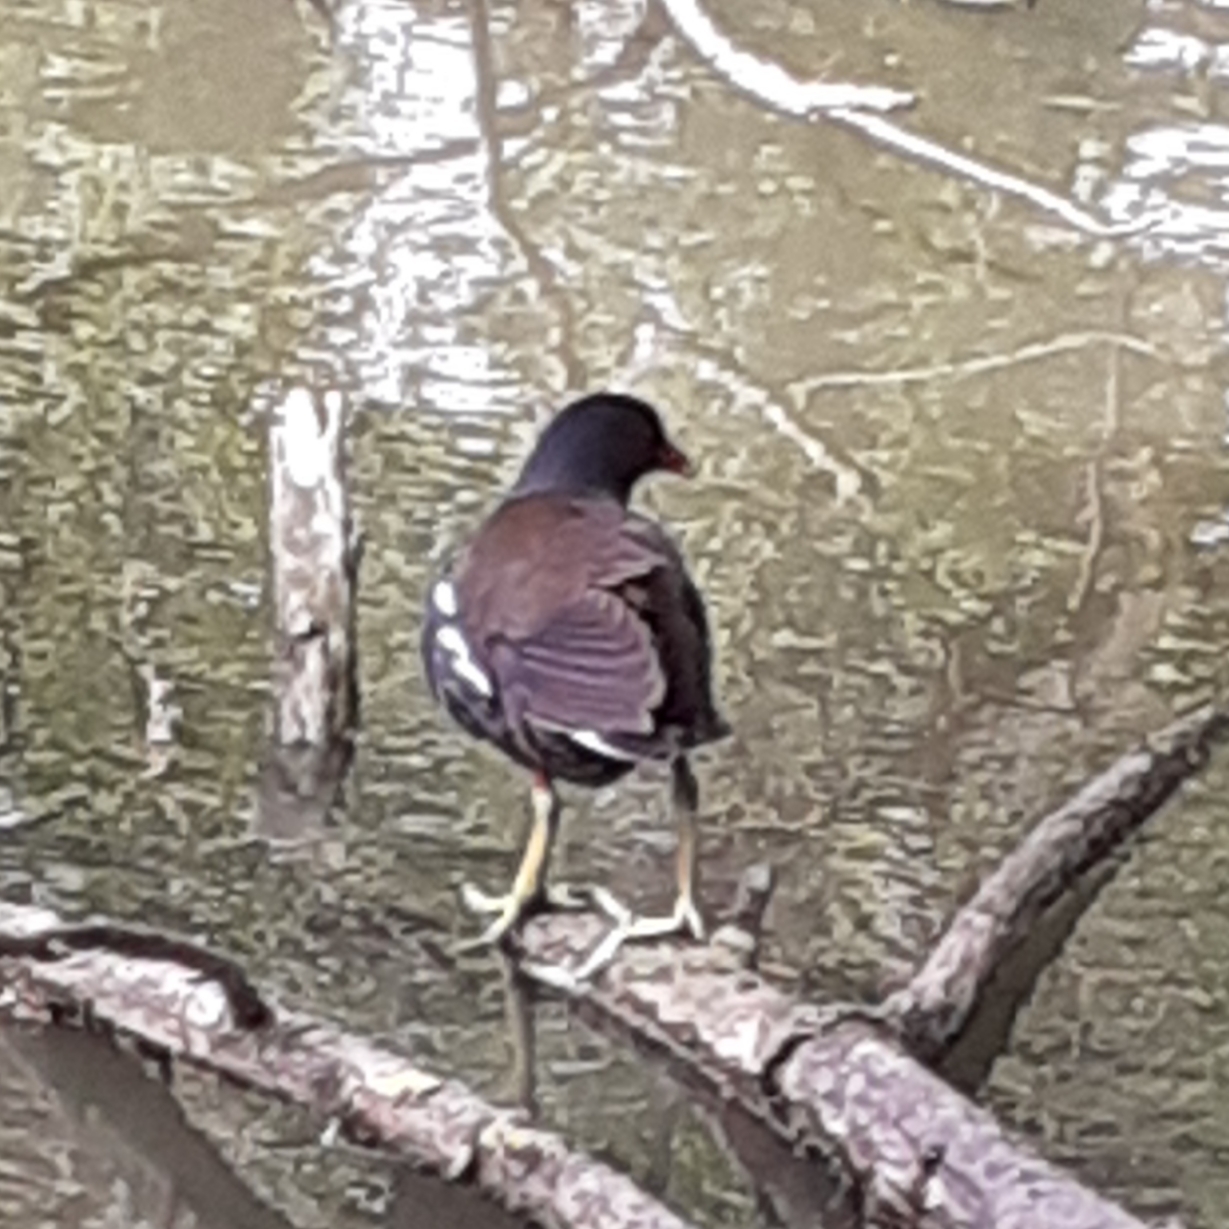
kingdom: Animalia
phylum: Chordata
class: Aves
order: Gruiformes
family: Rallidae
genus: Gallinula
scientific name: Gallinula chloropus
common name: Common moorhen
